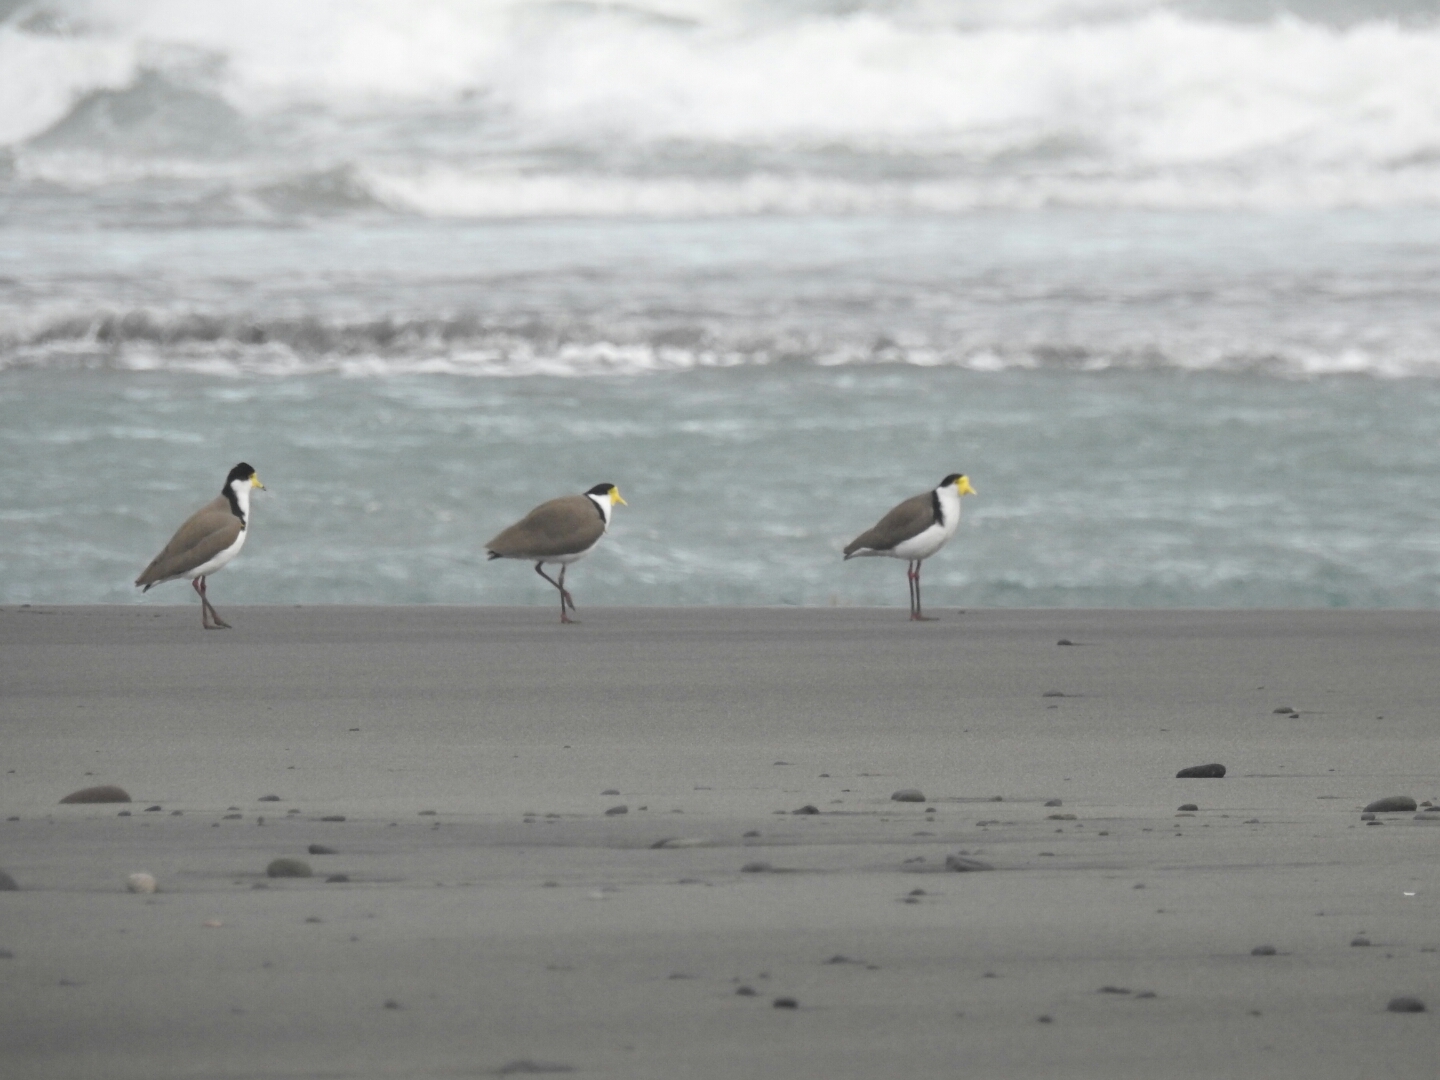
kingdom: Animalia
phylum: Chordata
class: Aves
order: Charadriiformes
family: Charadriidae
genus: Vanellus
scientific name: Vanellus miles
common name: Masked lapwing
